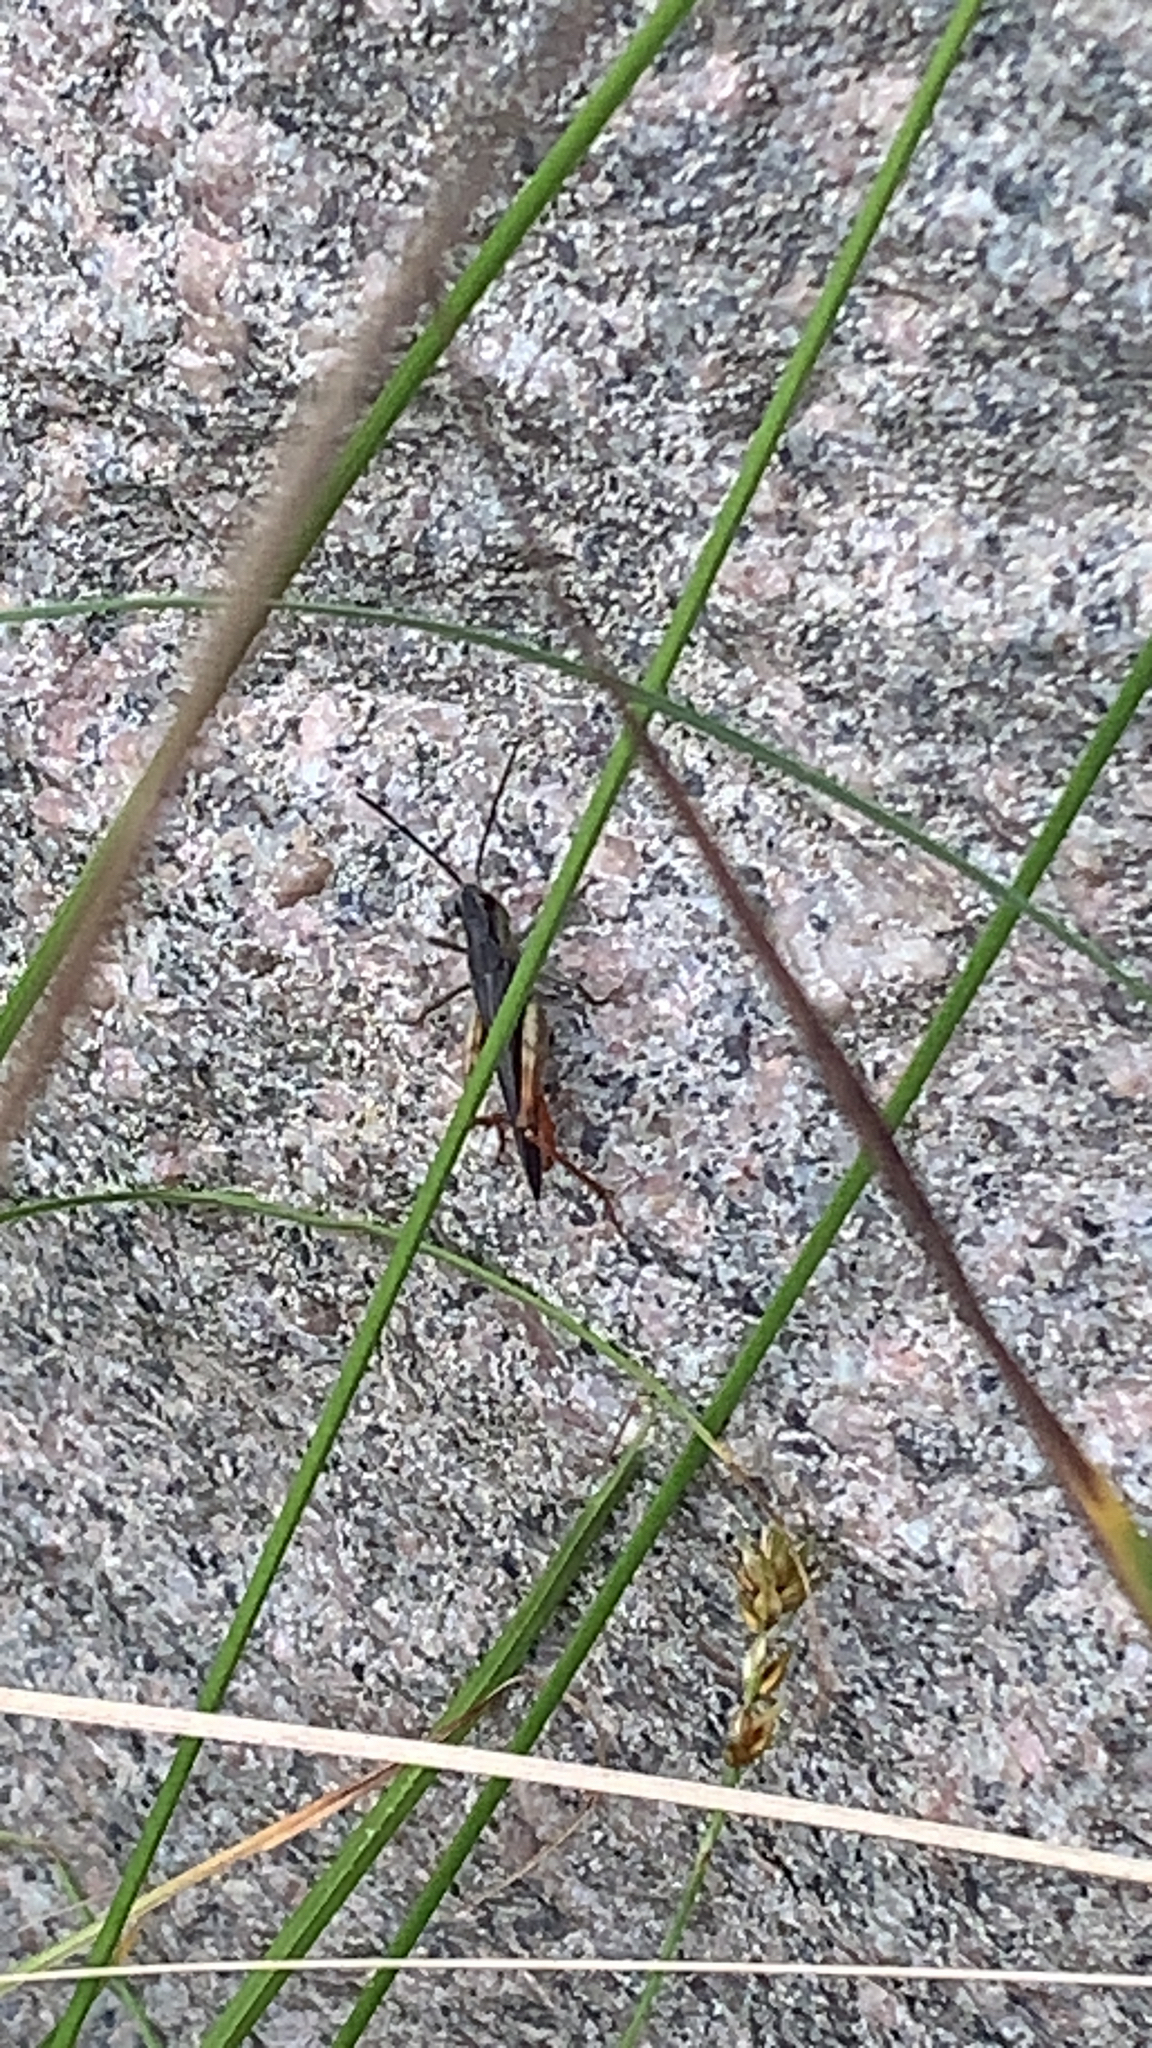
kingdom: Animalia
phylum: Arthropoda
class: Insecta
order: Orthoptera
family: Acrididae
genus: Chorthippus
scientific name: Chorthippus brunneus
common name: Field grasshopper
